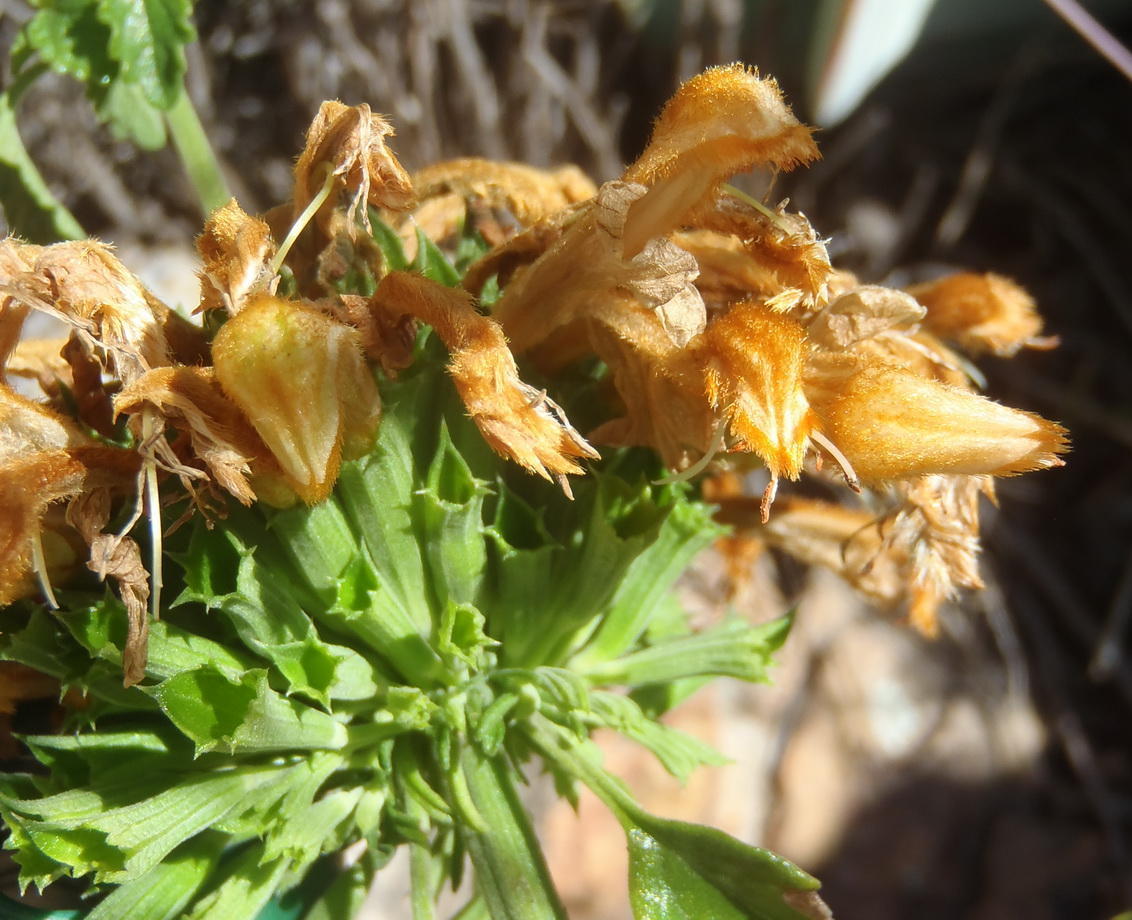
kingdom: Plantae
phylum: Tracheophyta
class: Magnoliopsida
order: Lamiales
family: Lamiaceae
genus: Leonotis
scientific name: Leonotis ocymifolia
